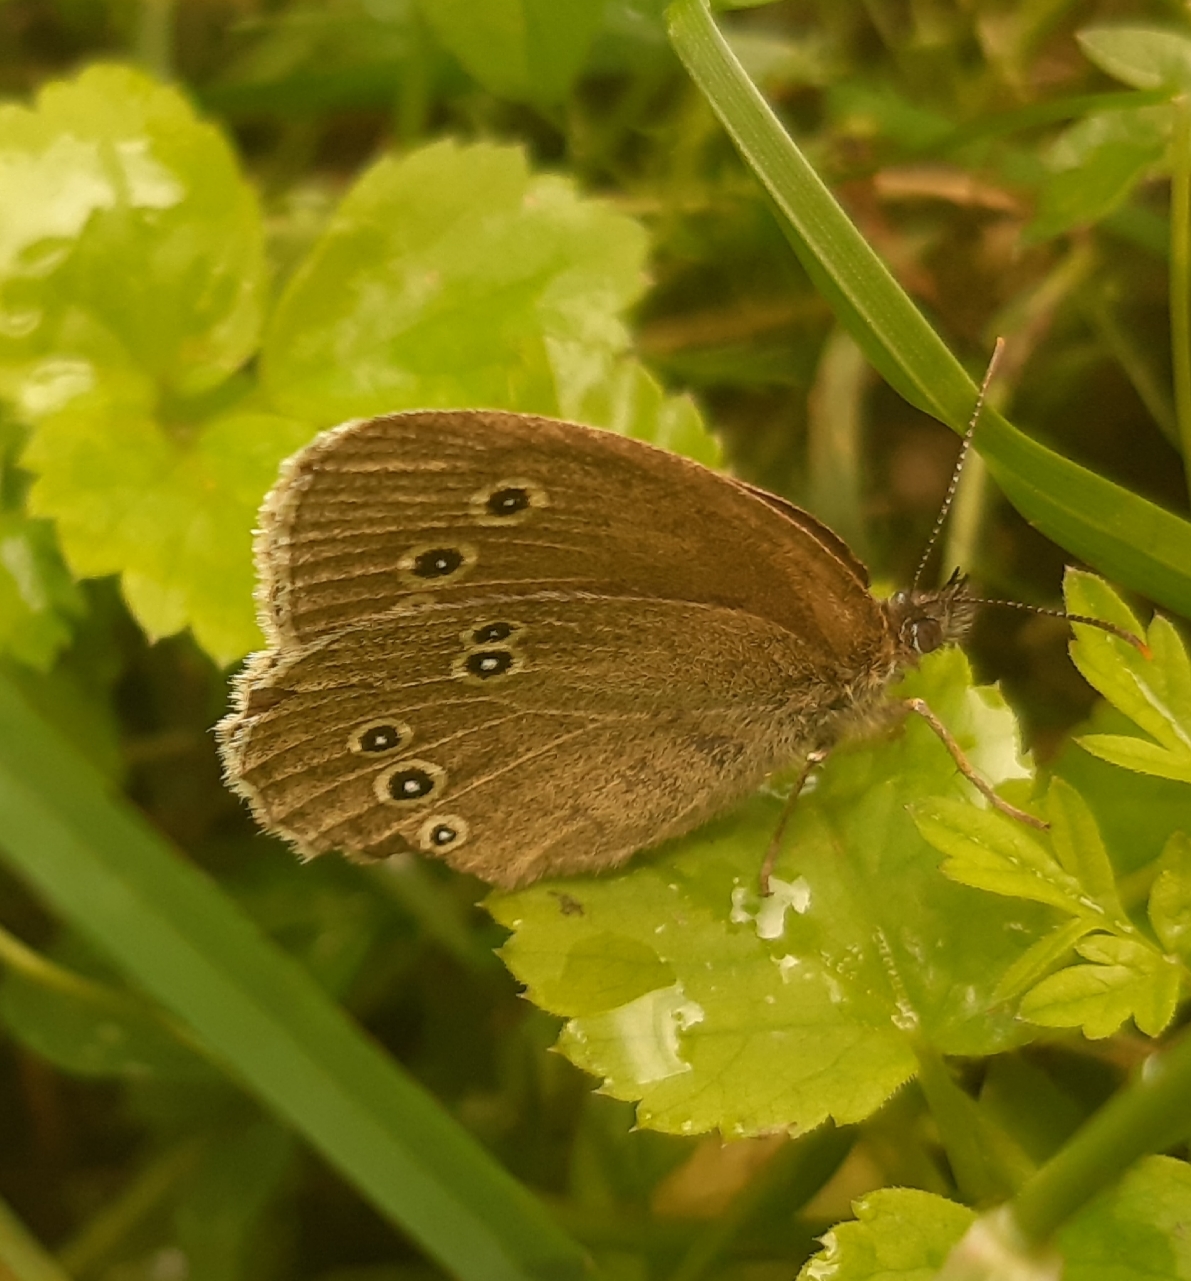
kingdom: Animalia
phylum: Arthropoda
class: Insecta
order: Lepidoptera
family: Nymphalidae
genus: Aphantopus
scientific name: Aphantopus hyperantus
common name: Ringlet
